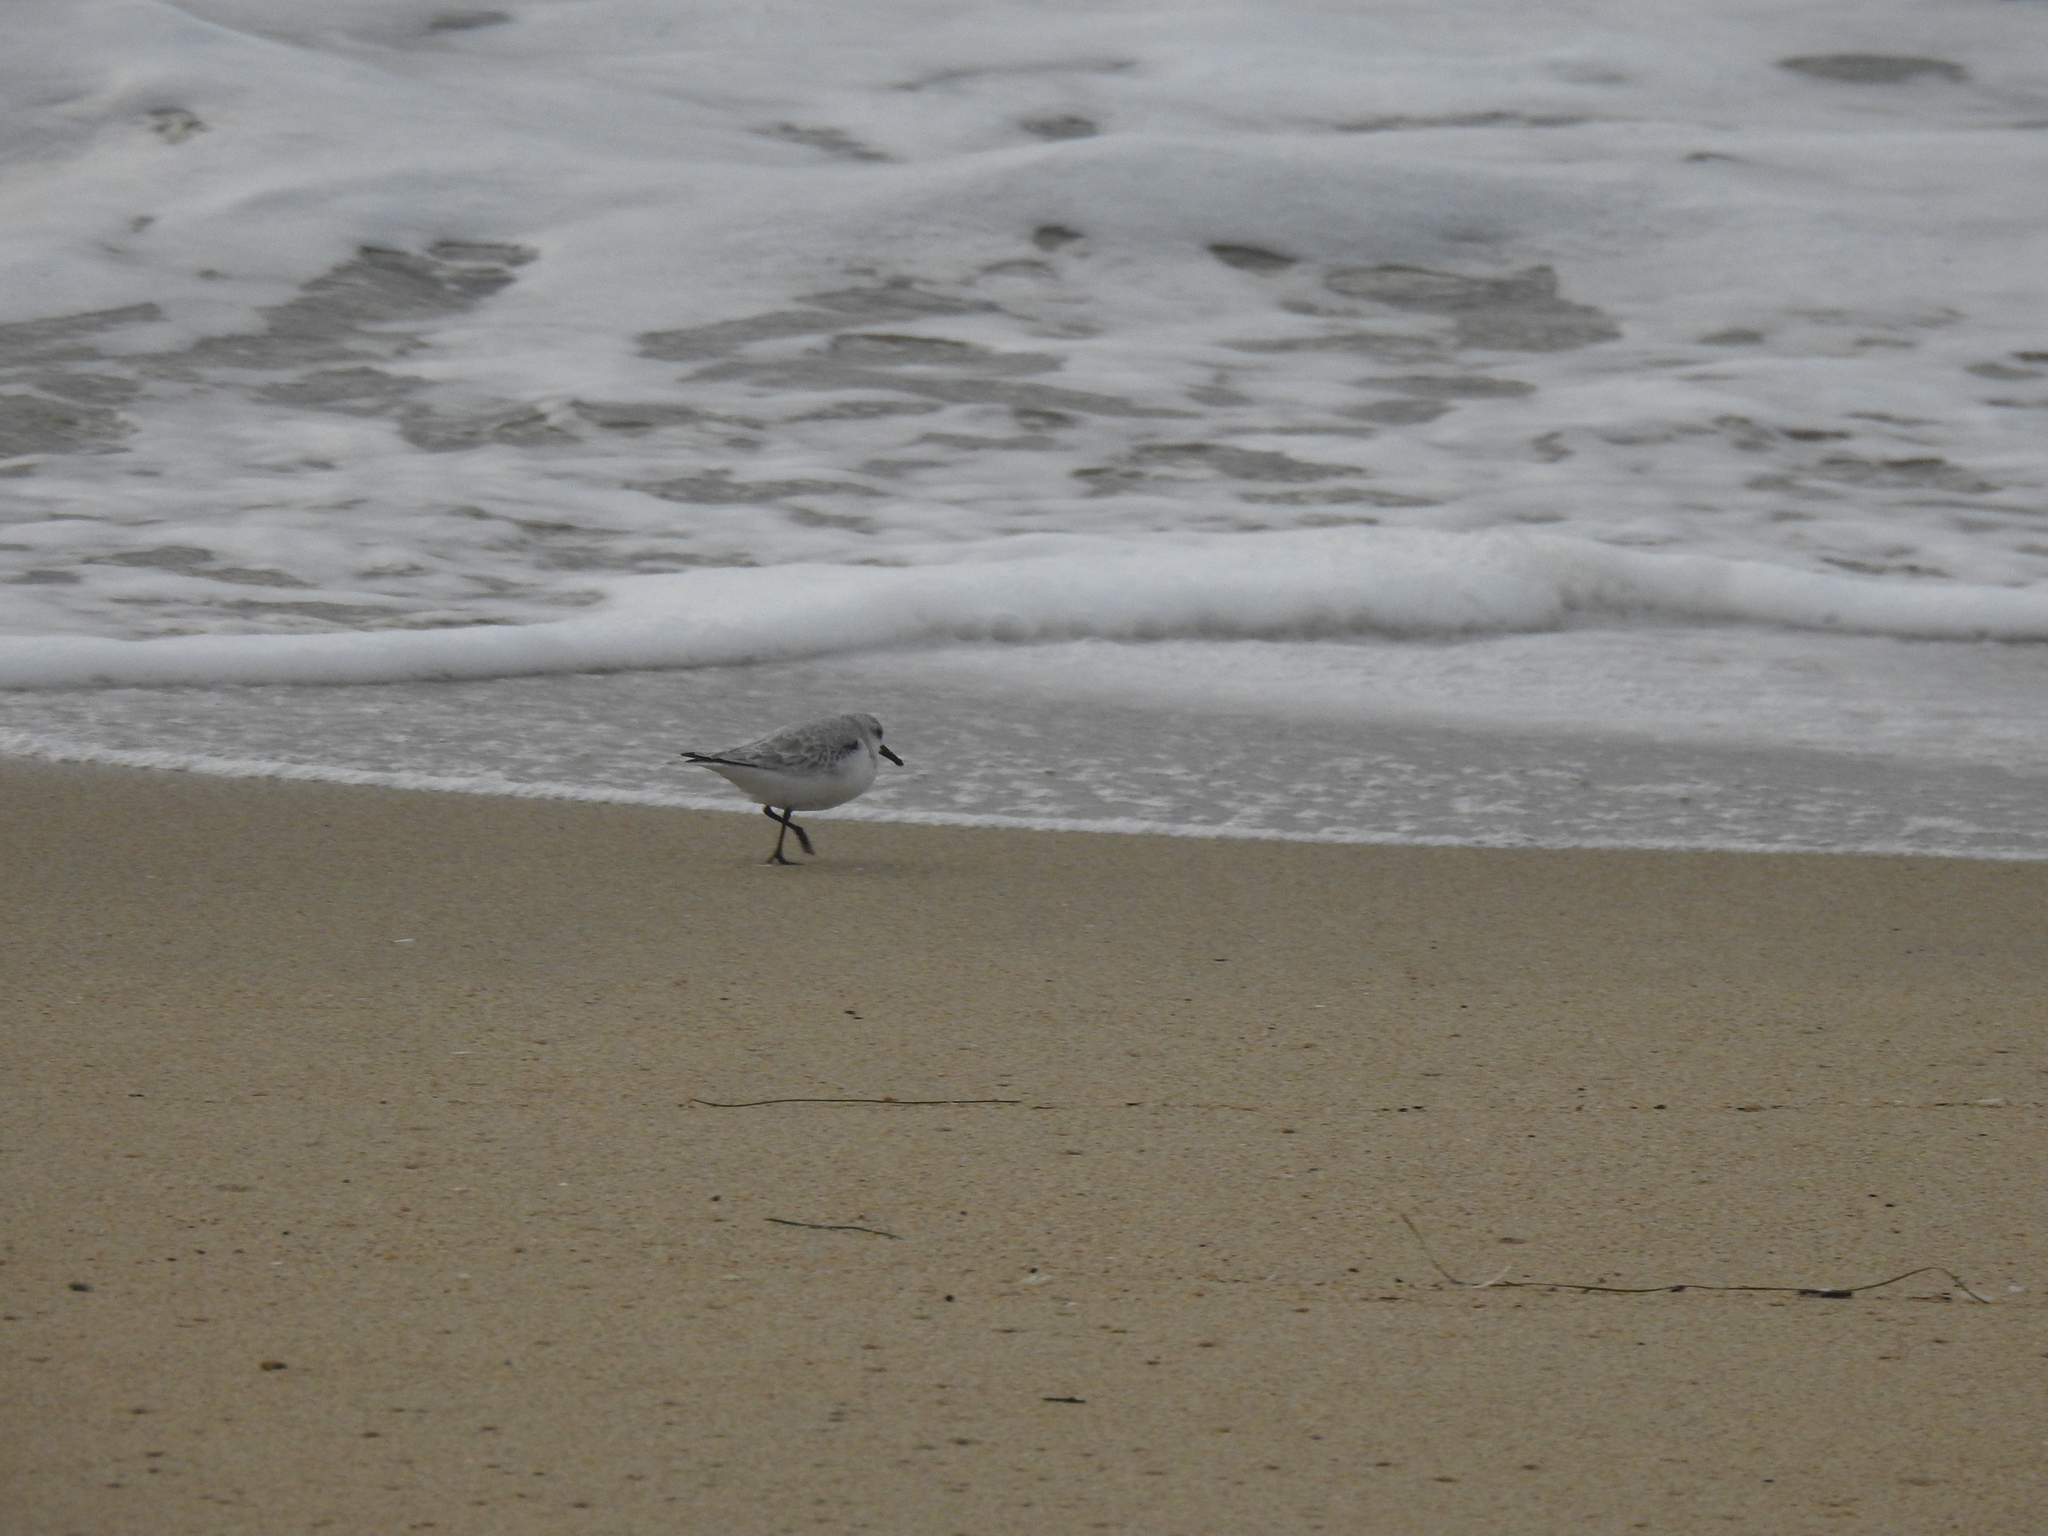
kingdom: Animalia
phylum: Chordata
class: Aves
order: Charadriiformes
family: Scolopacidae
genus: Calidris
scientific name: Calidris alba
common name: Sanderling
